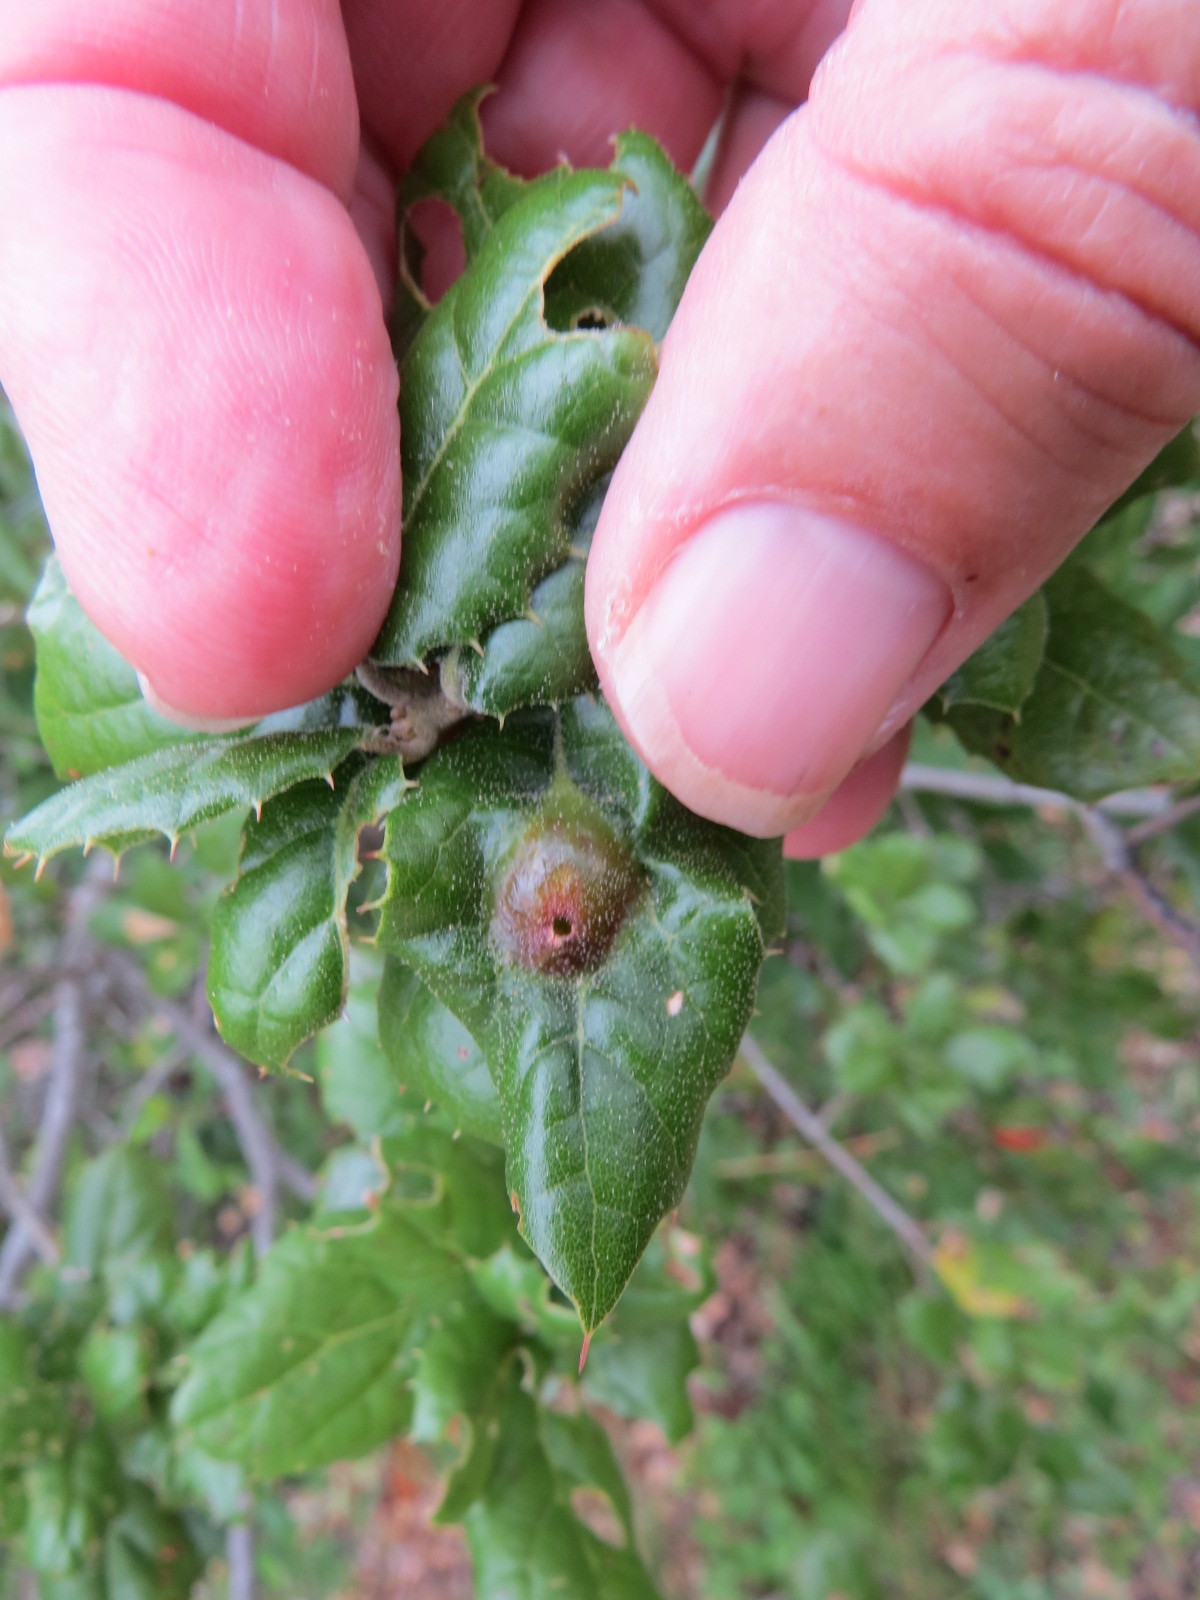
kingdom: Animalia
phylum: Arthropoda
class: Insecta
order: Hymenoptera
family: Cynipidae
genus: Callirhytis
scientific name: Callirhytis
